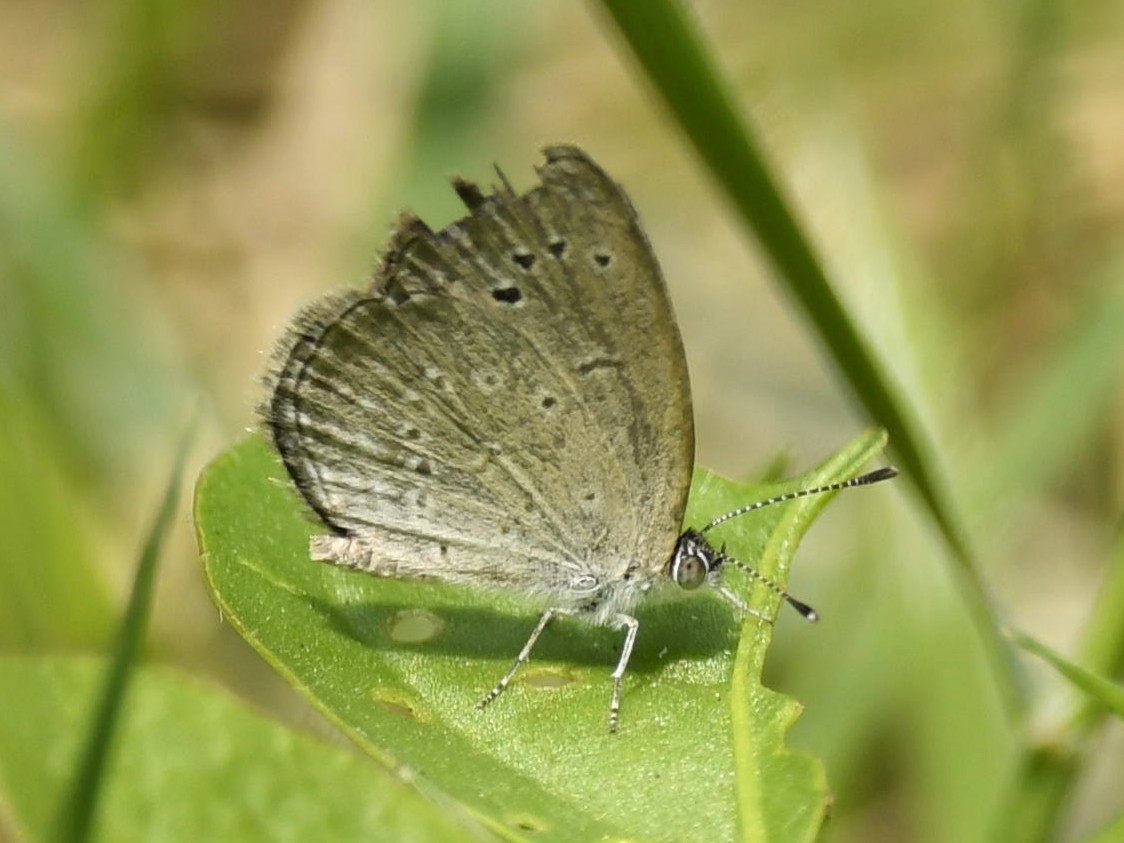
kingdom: Animalia
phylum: Arthropoda
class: Insecta
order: Lepidoptera
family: Lycaenidae
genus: Pseudozizeeria
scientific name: Pseudozizeeria maha
